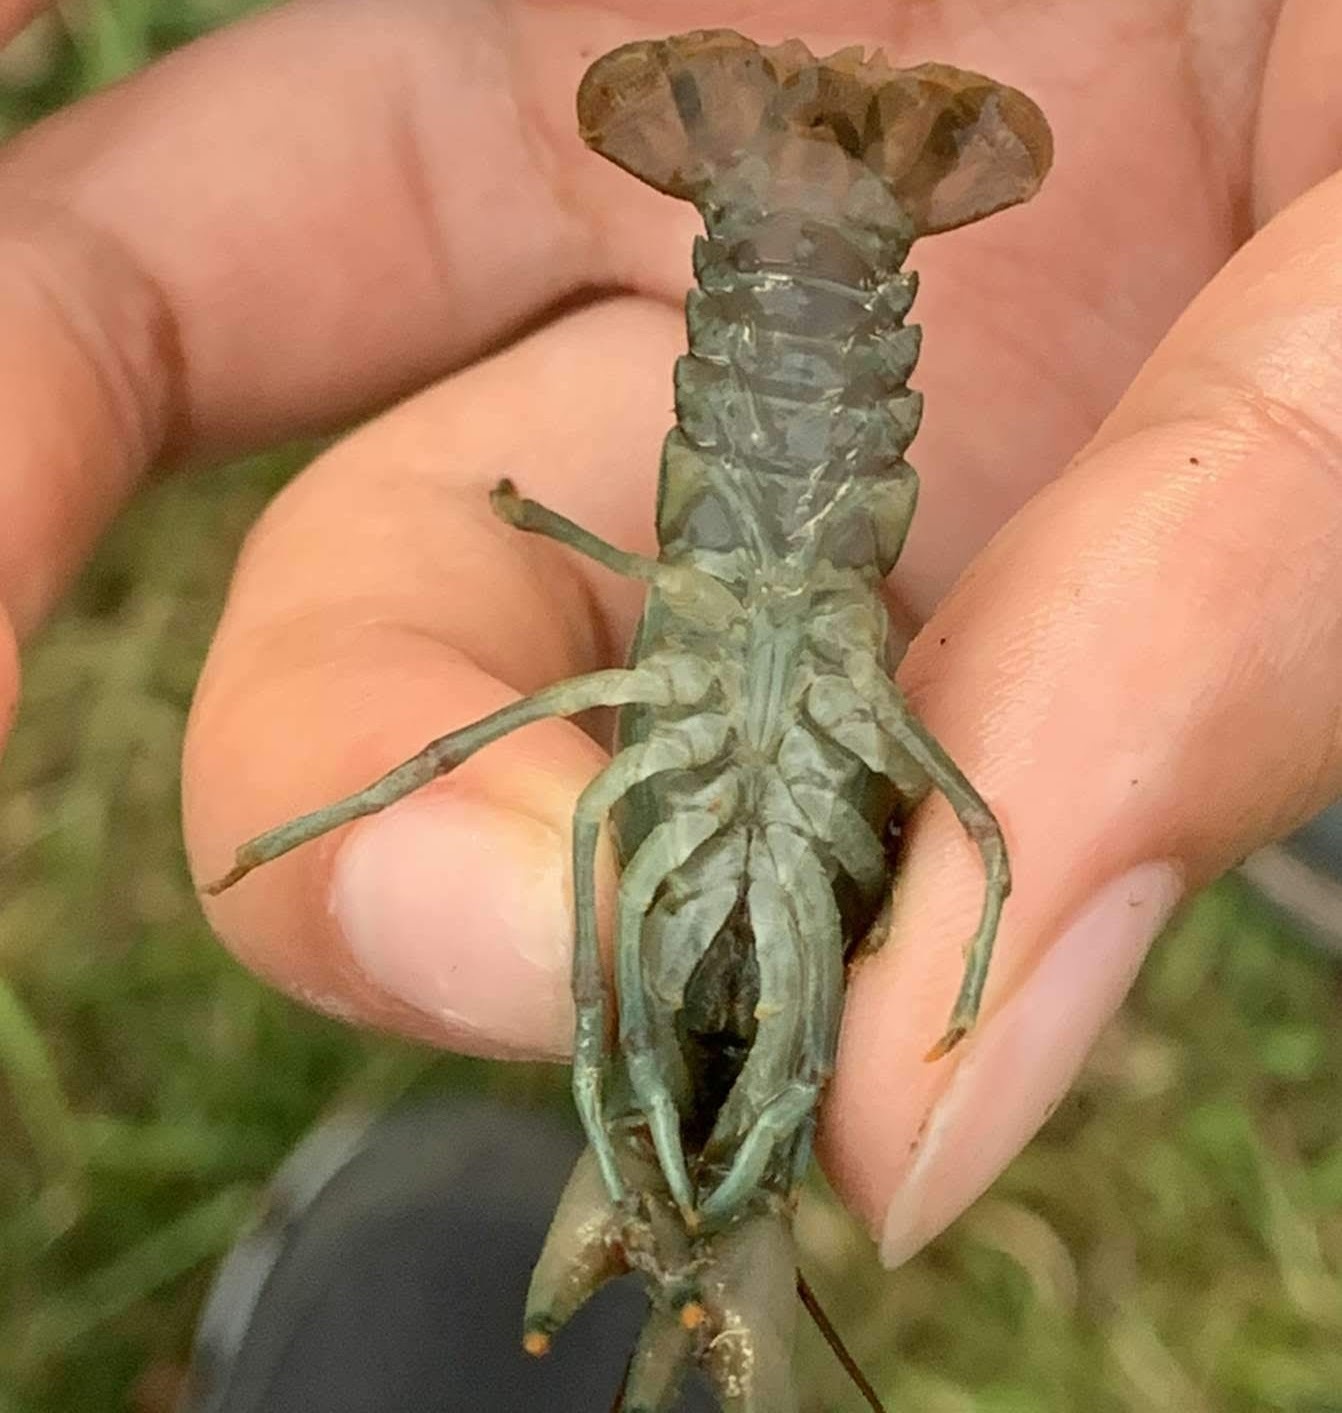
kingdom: Animalia
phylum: Arthropoda
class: Malacostraca
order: Decapoda
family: Cambaridae
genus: Faxonius
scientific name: Faxonius rusticus
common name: Rusty crayfish
